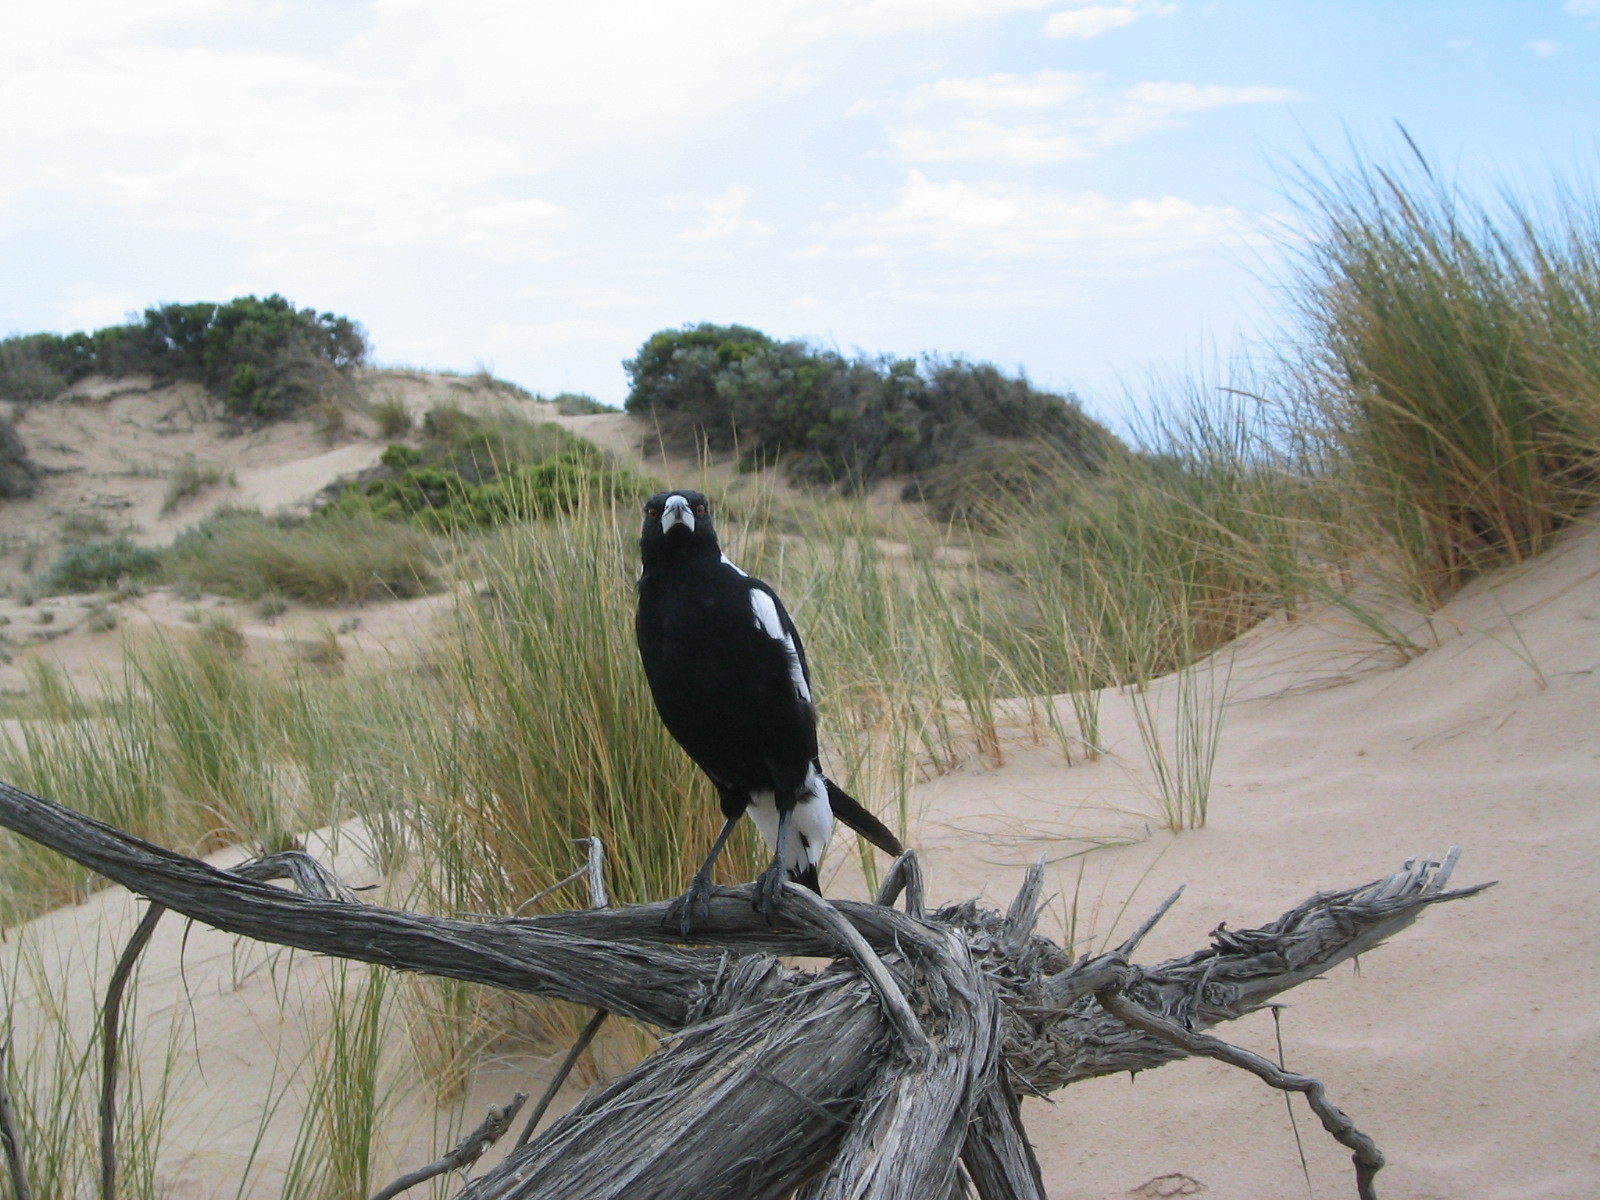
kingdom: Animalia
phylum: Chordata
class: Aves
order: Passeriformes
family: Cracticidae
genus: Gymnorhina
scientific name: Gymnorhina tibicen
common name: Australian magpie
